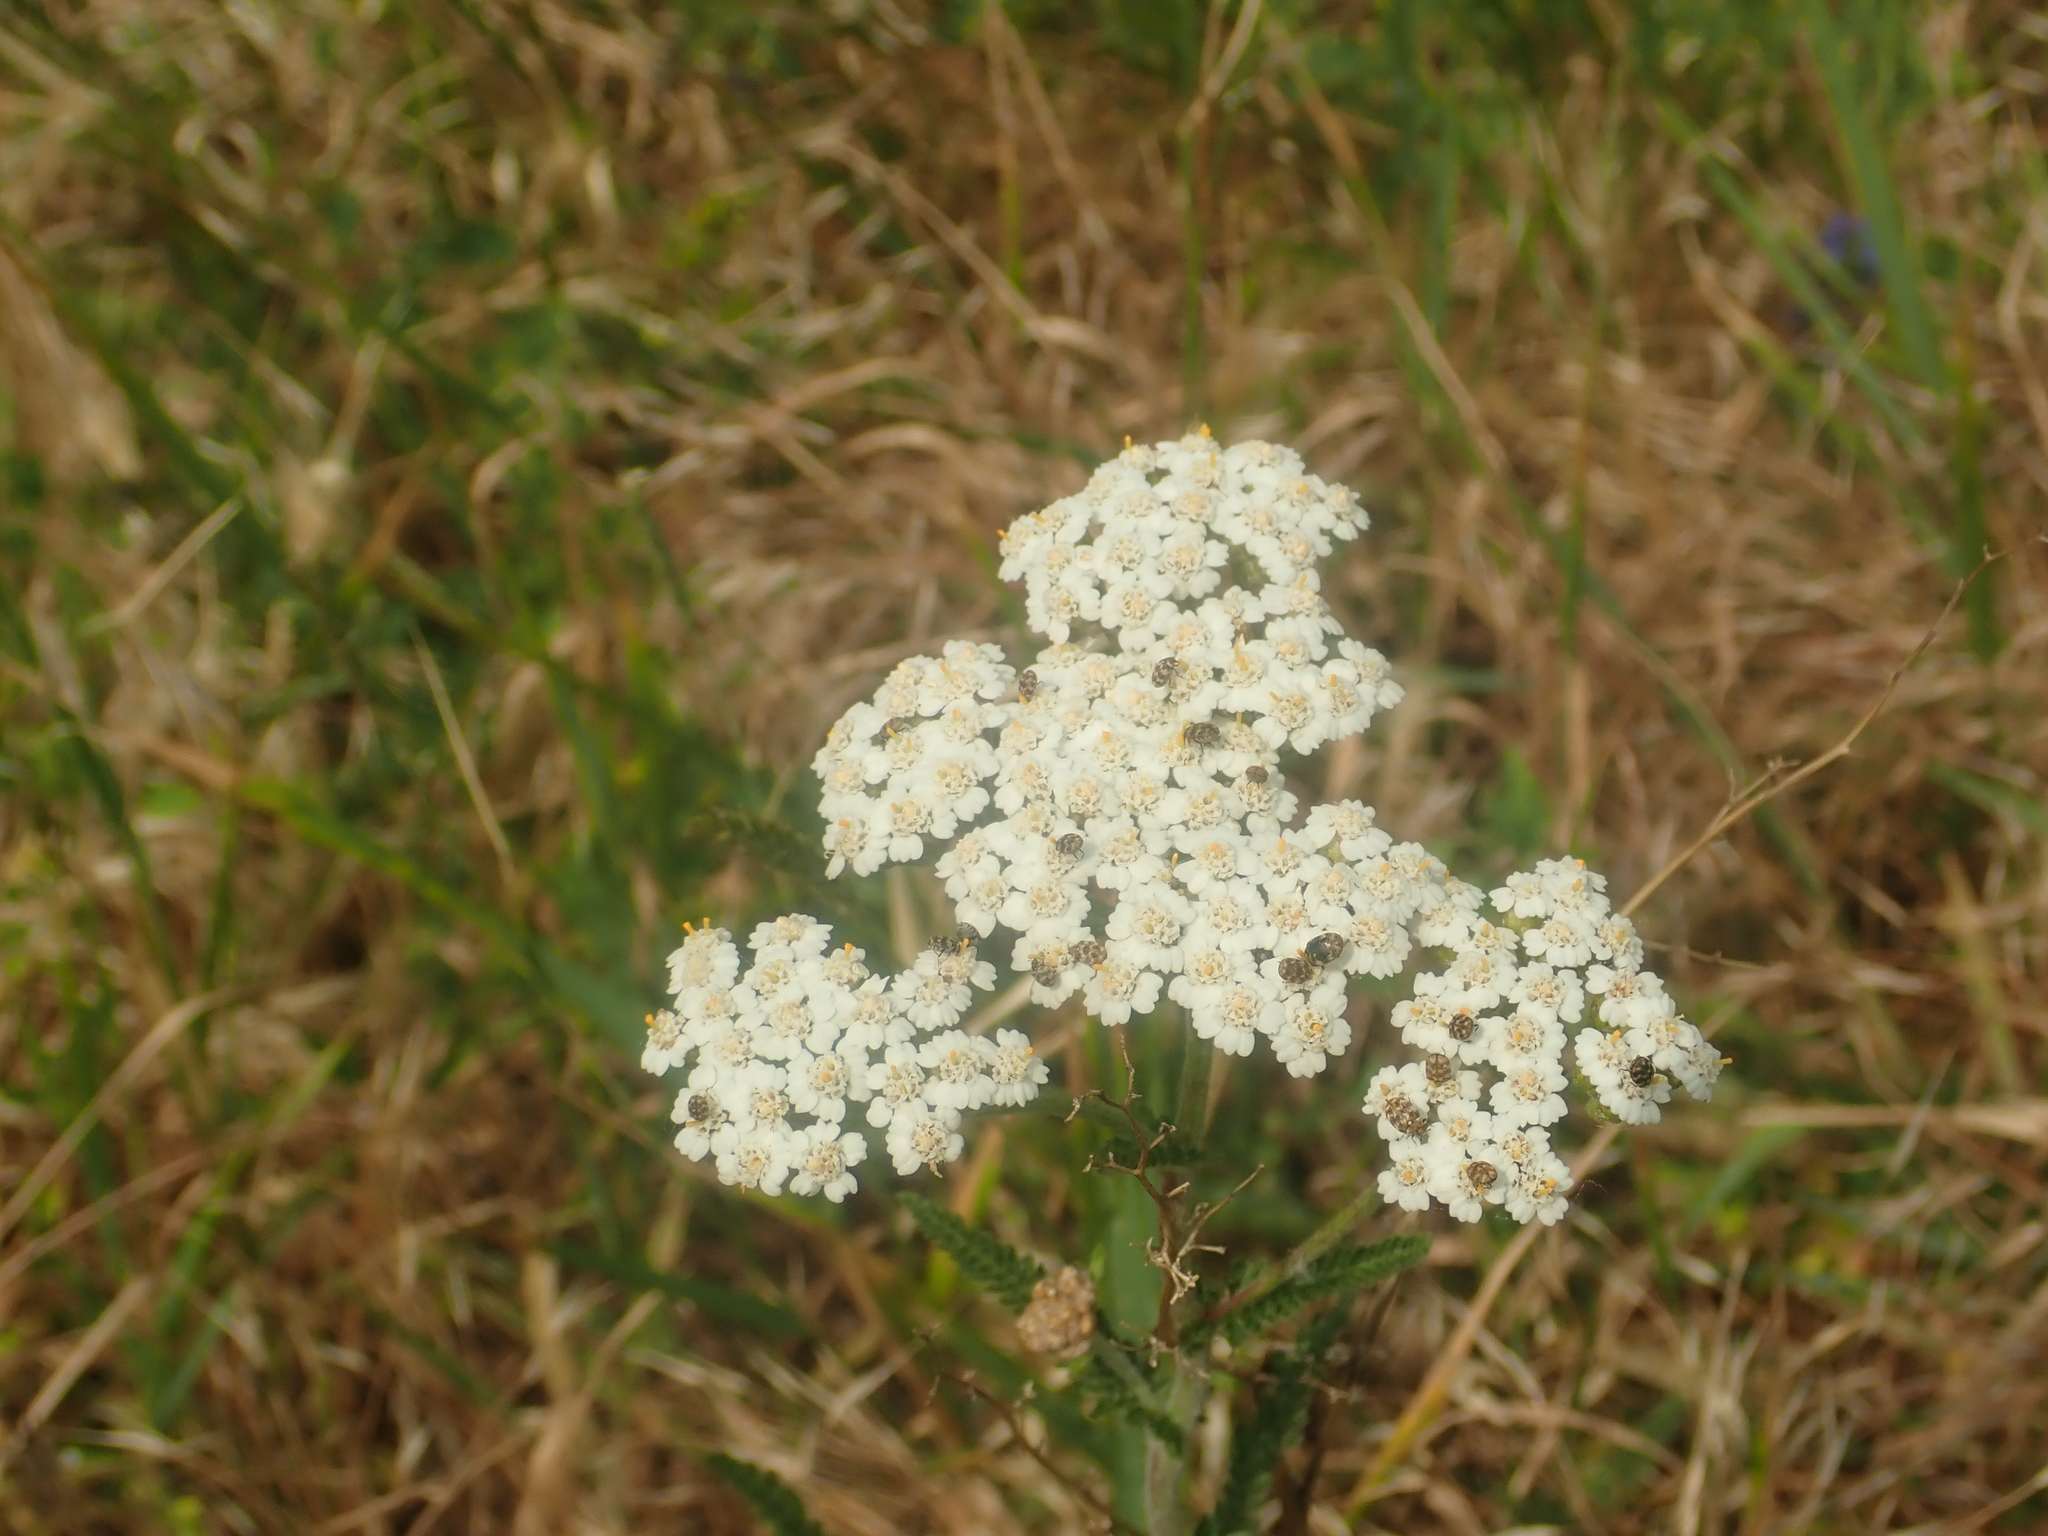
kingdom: Plantae
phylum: Tracheophyta
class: Magnoliopsida
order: Asterales
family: Asteraceae
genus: Achillea
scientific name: Achillea millefolium
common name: Yarrow
